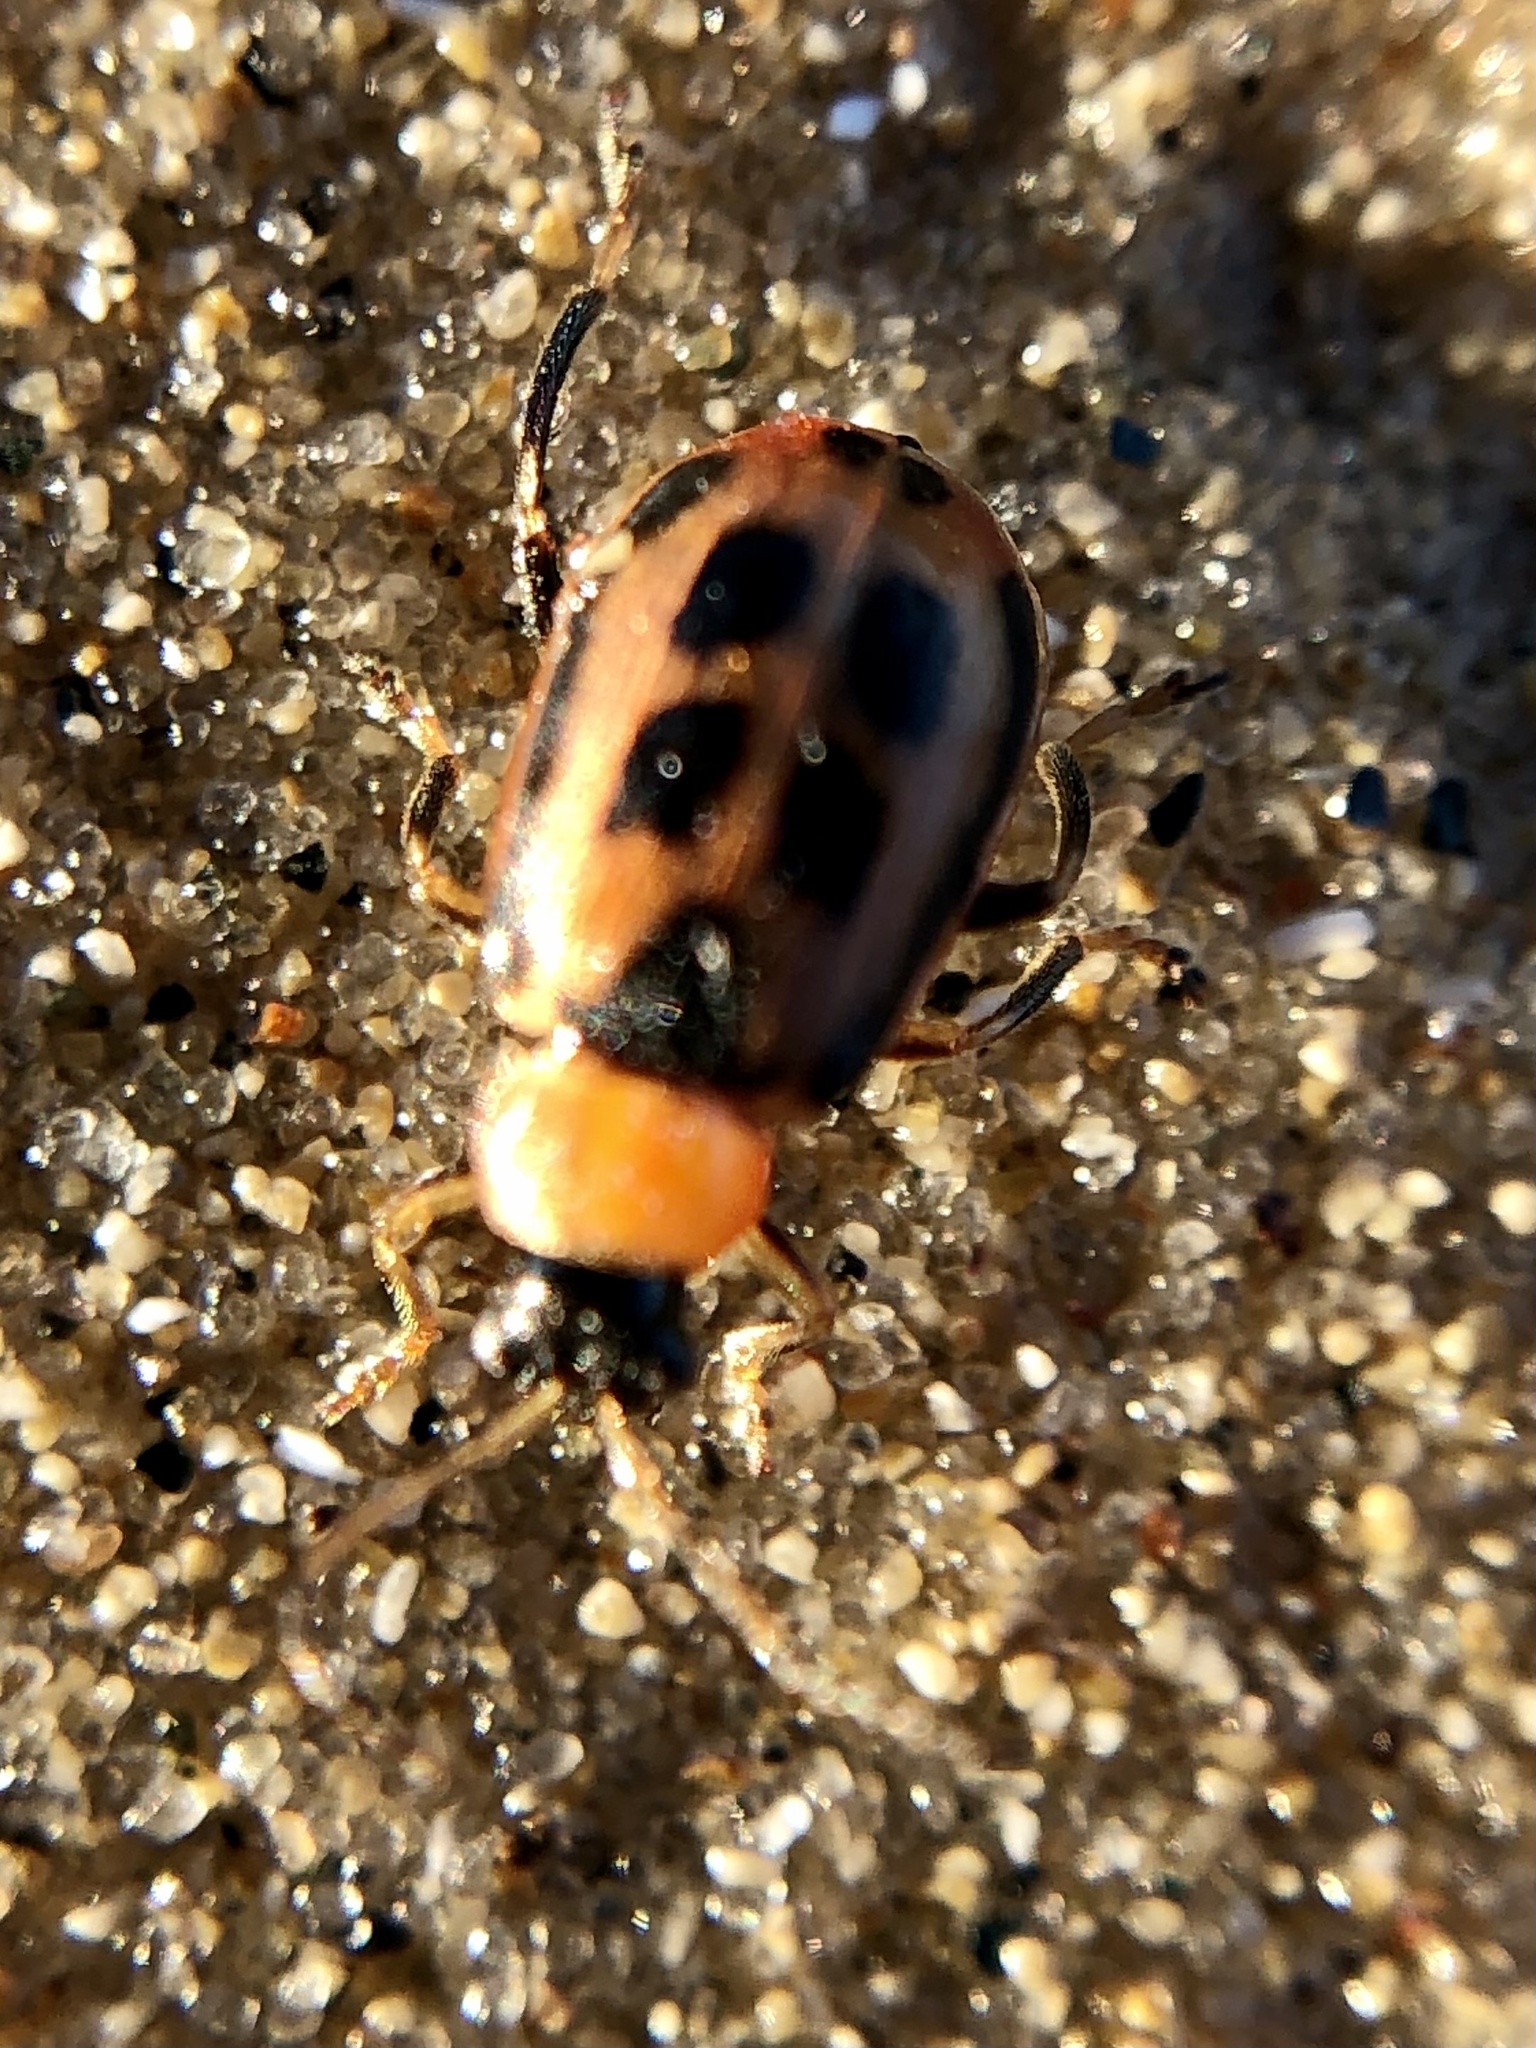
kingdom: Animalia
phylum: Arthropoda
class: Insecta
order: Coleoptera
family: Chrysomelidae
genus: Cerotoma
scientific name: Cerotoma trifurcata
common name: Bean leaf beetle
